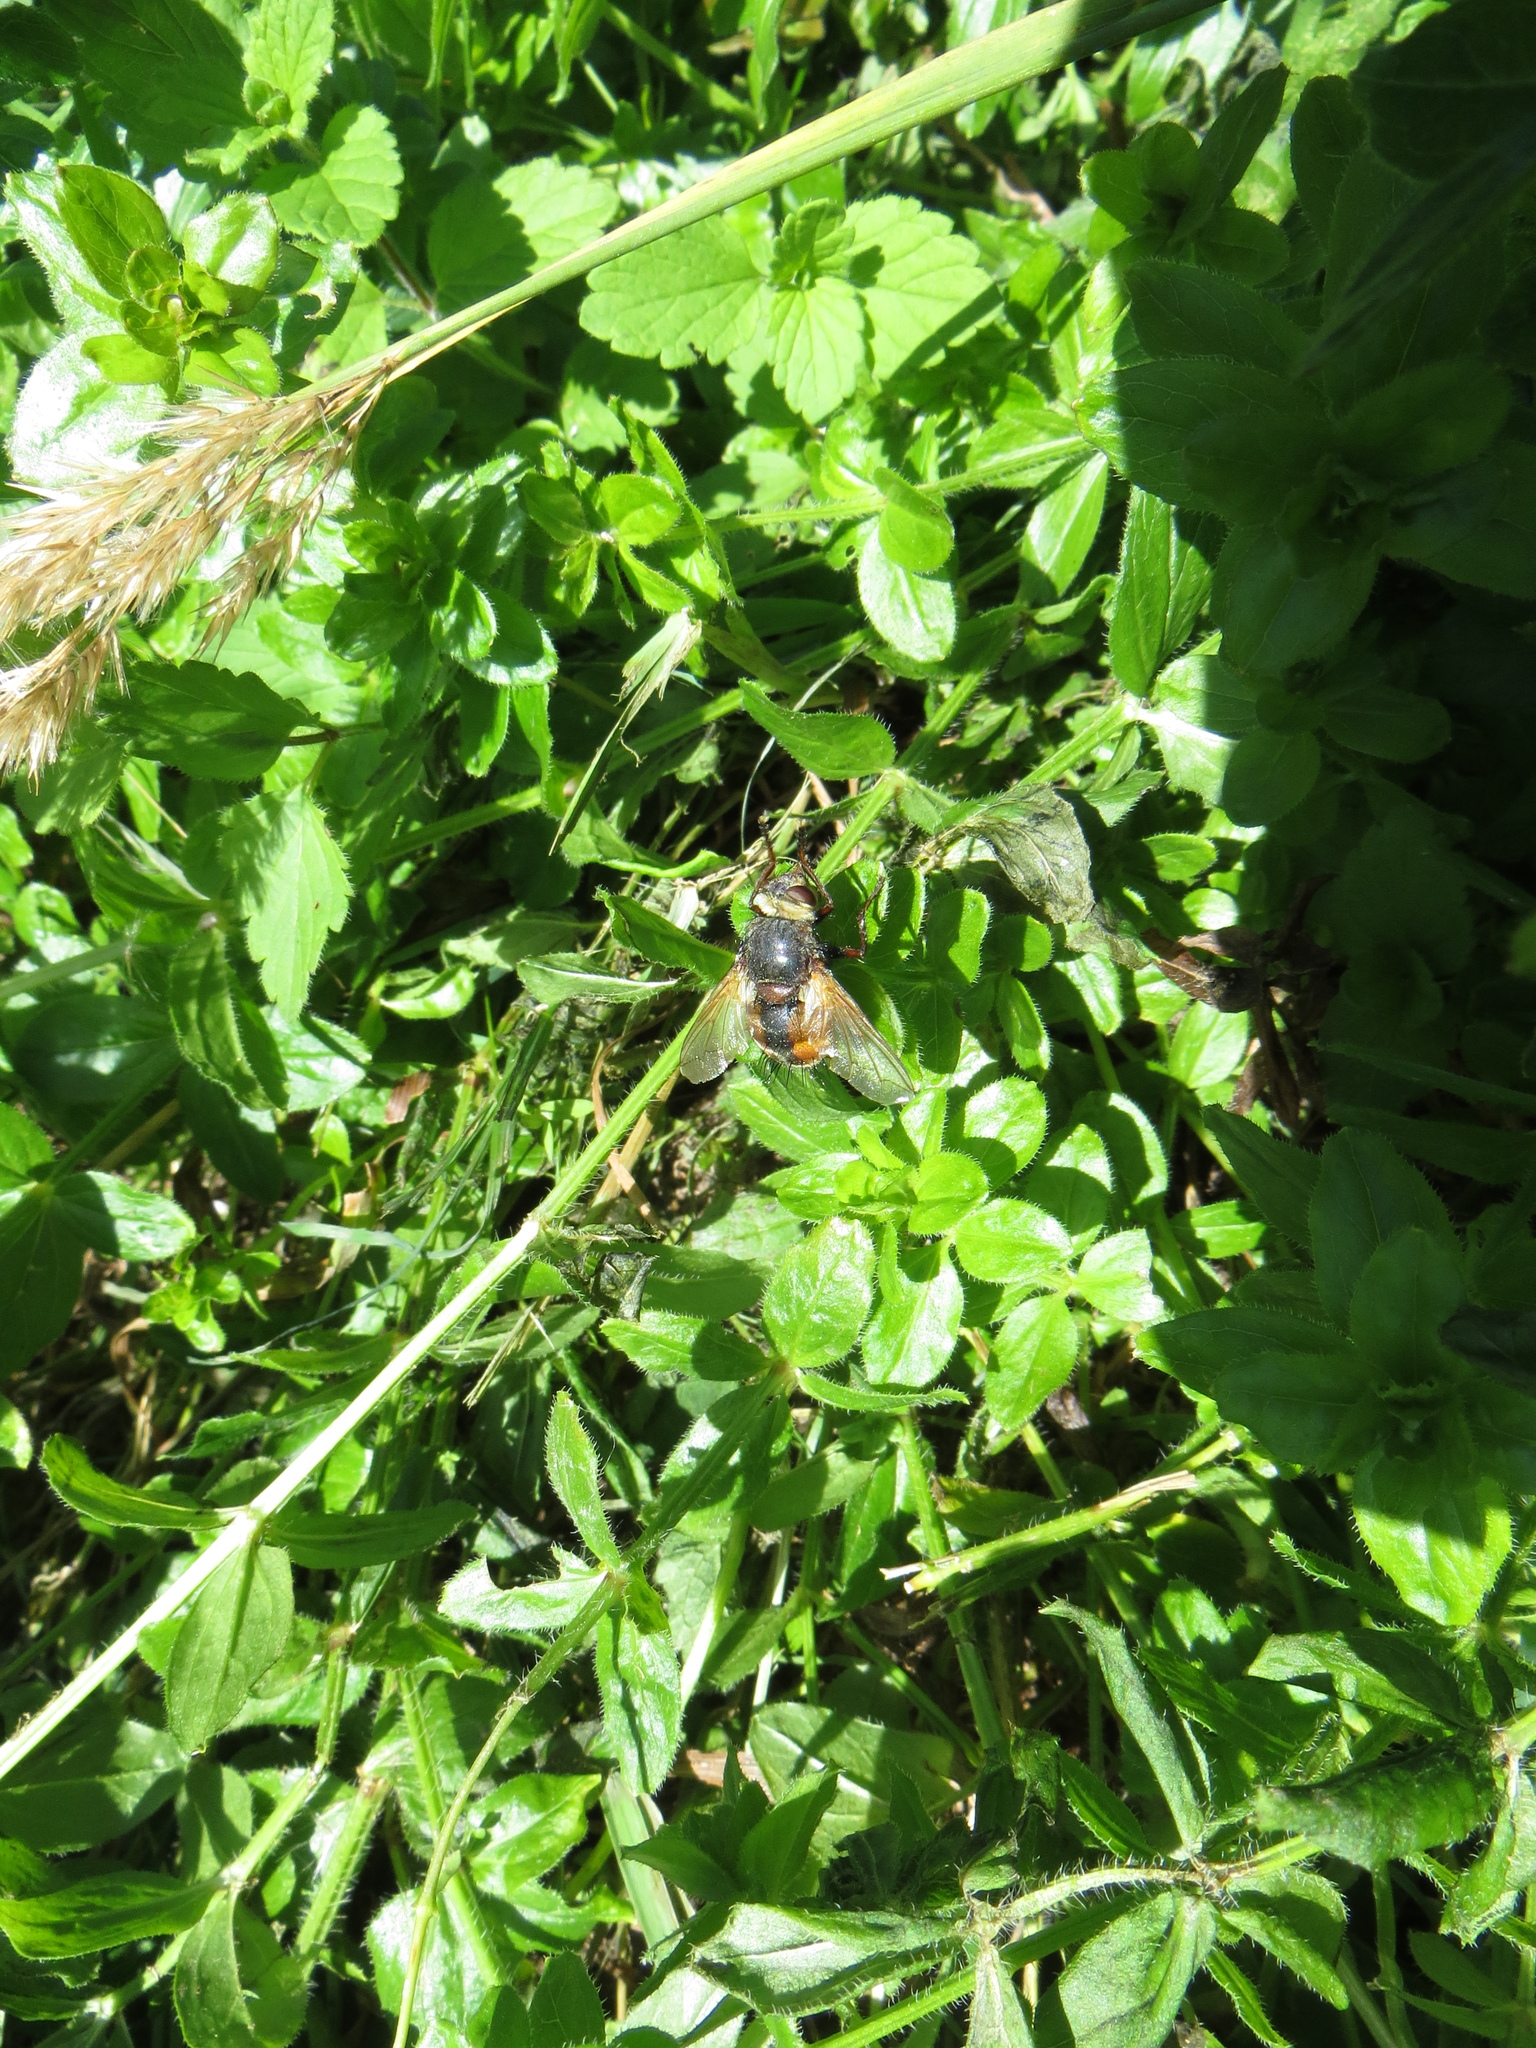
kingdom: Animalia
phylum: Arthropoda
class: Insecta
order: Diptera
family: Tachinidae
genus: Tachina
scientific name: Tachina fera
